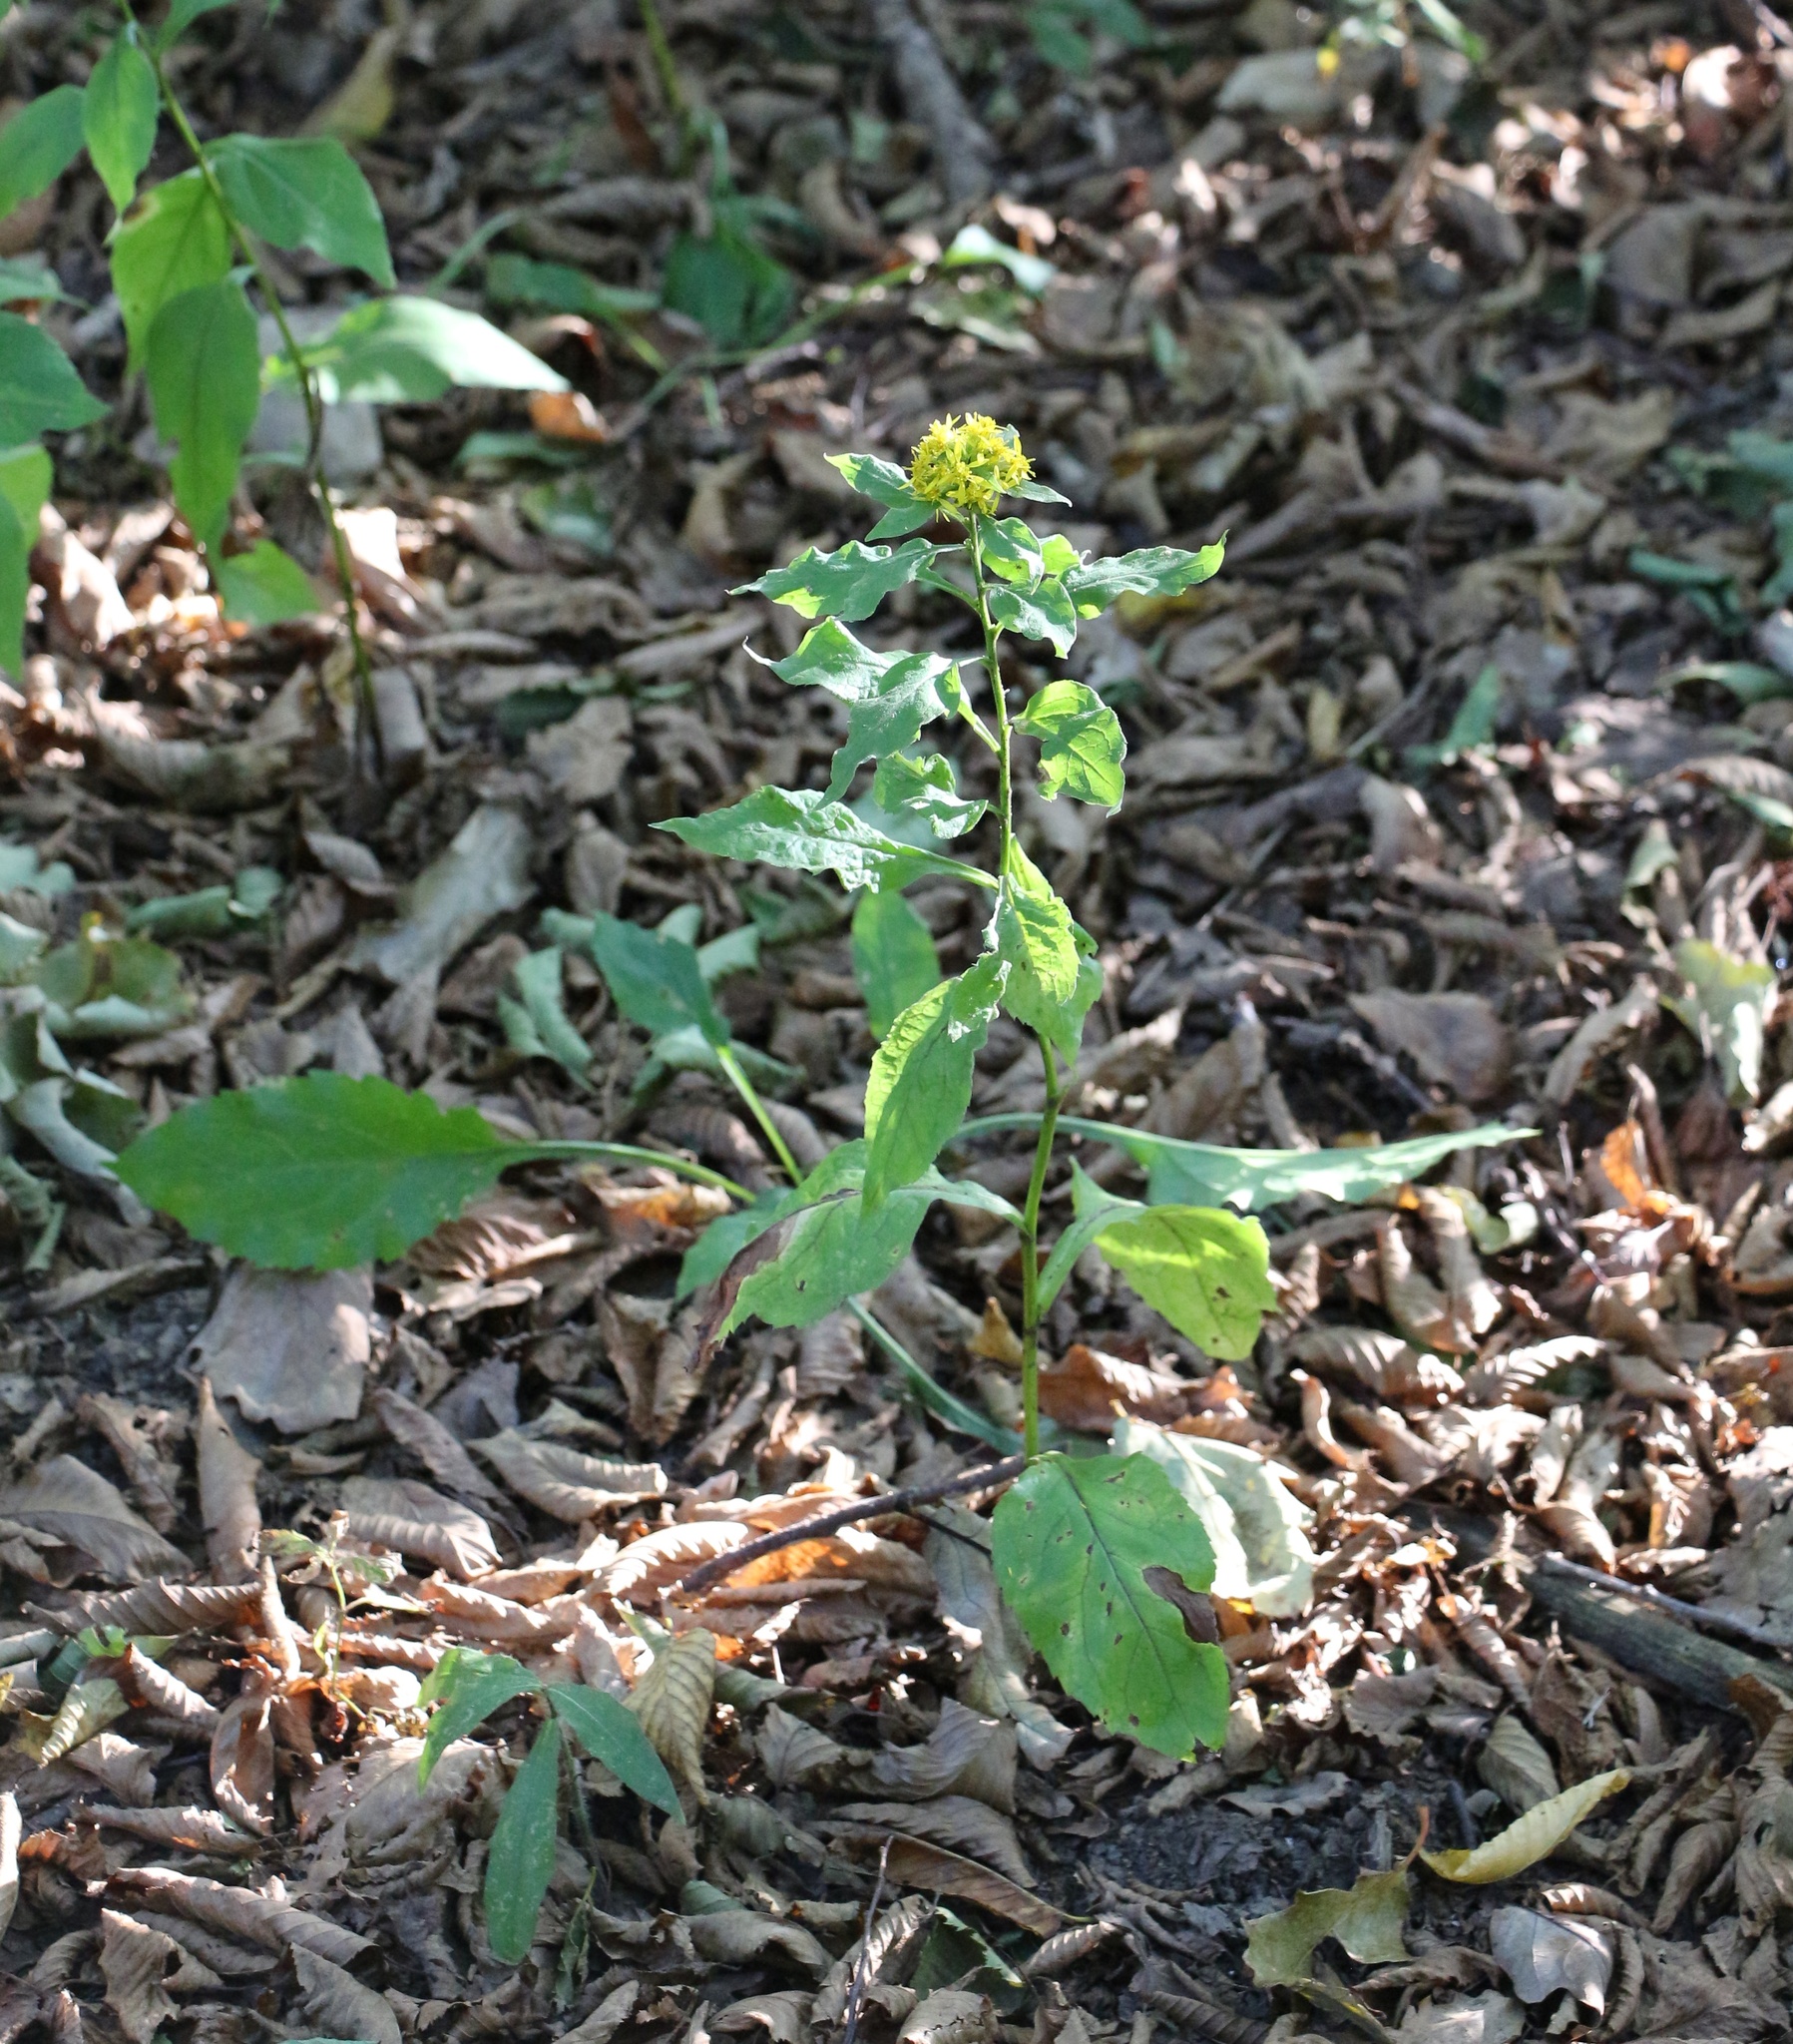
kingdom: Plantae
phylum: Tracheophyta
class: Magnoliopsida
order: Asterales
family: Asteraceae
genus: Solidago
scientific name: Solidago virgaurea
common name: Goldenrod
